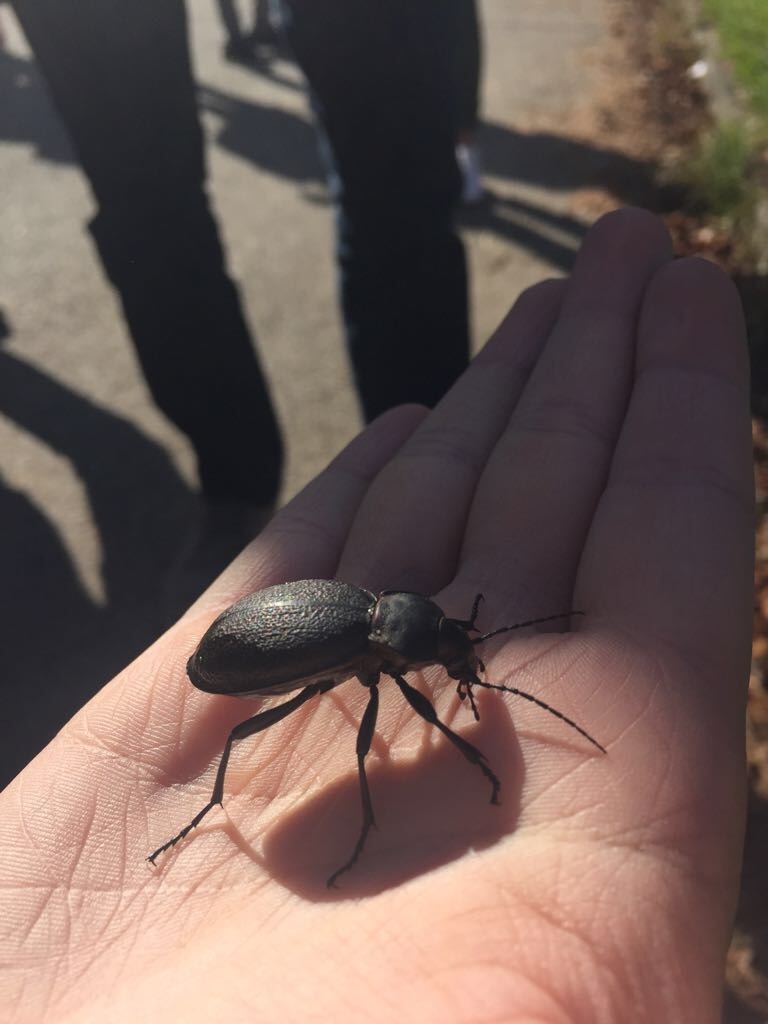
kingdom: Animalia
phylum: Arthropoda
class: Insecta
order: Coleoptera
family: Carabidae
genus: Carabus
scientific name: Carabus coriaceus
